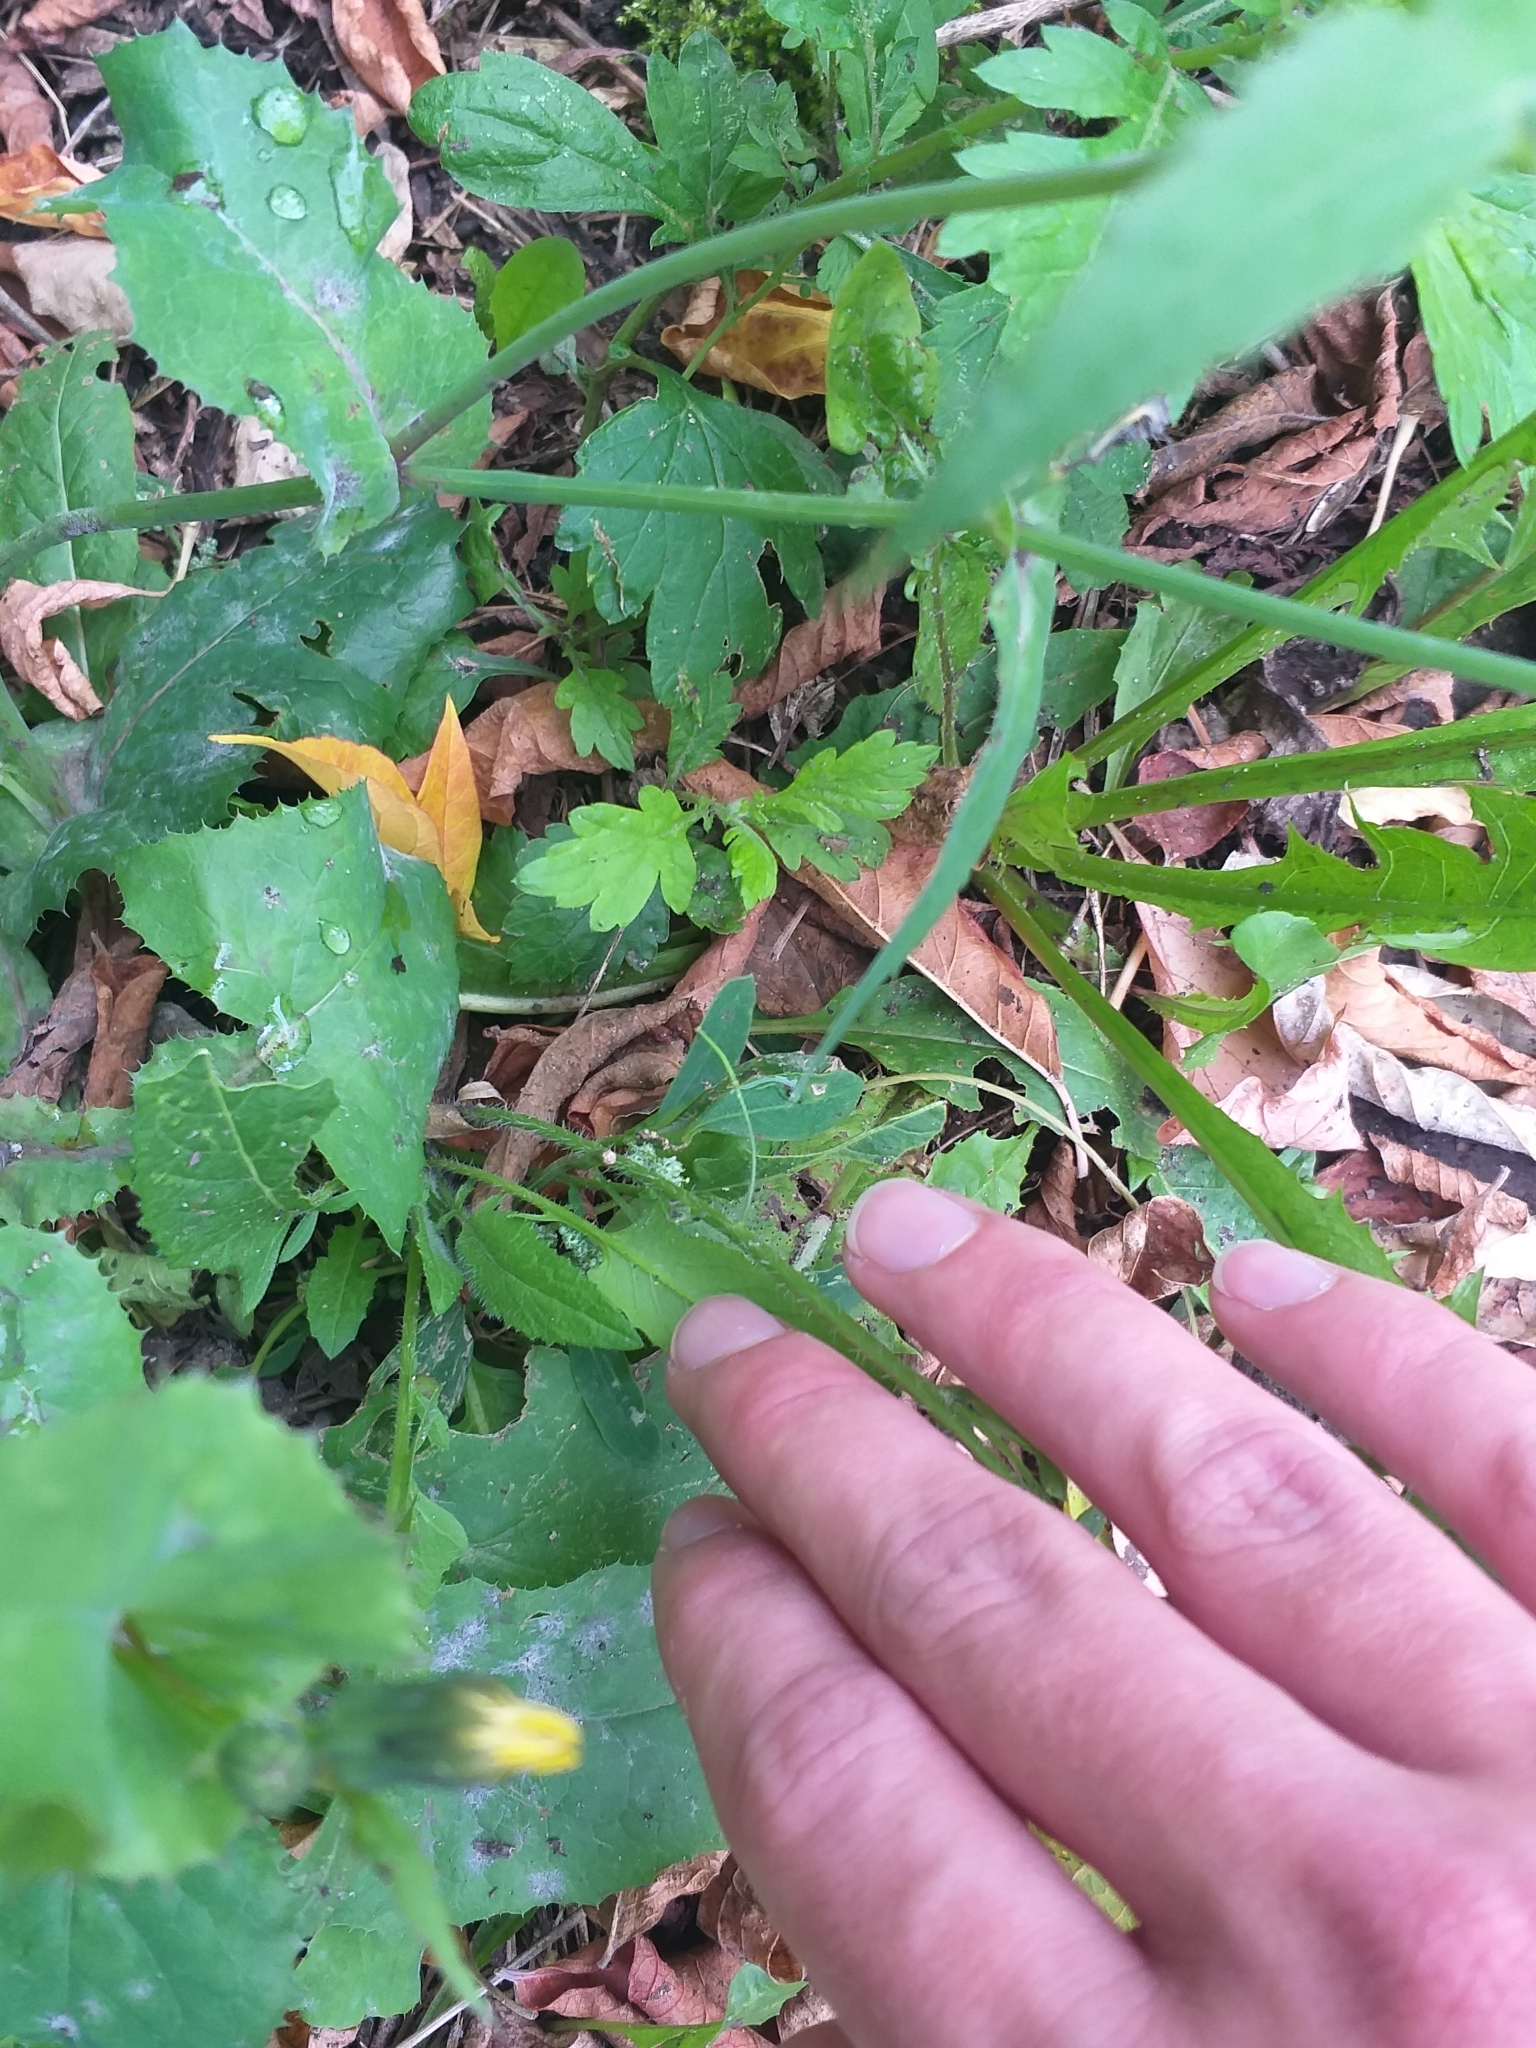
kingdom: Plantae
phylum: Tracheophyta
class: Magnoliopsida
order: Brassicales
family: Brassicaceae
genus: Sisymbrium
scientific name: Sisymbrium loeselii
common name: False london-rocket
